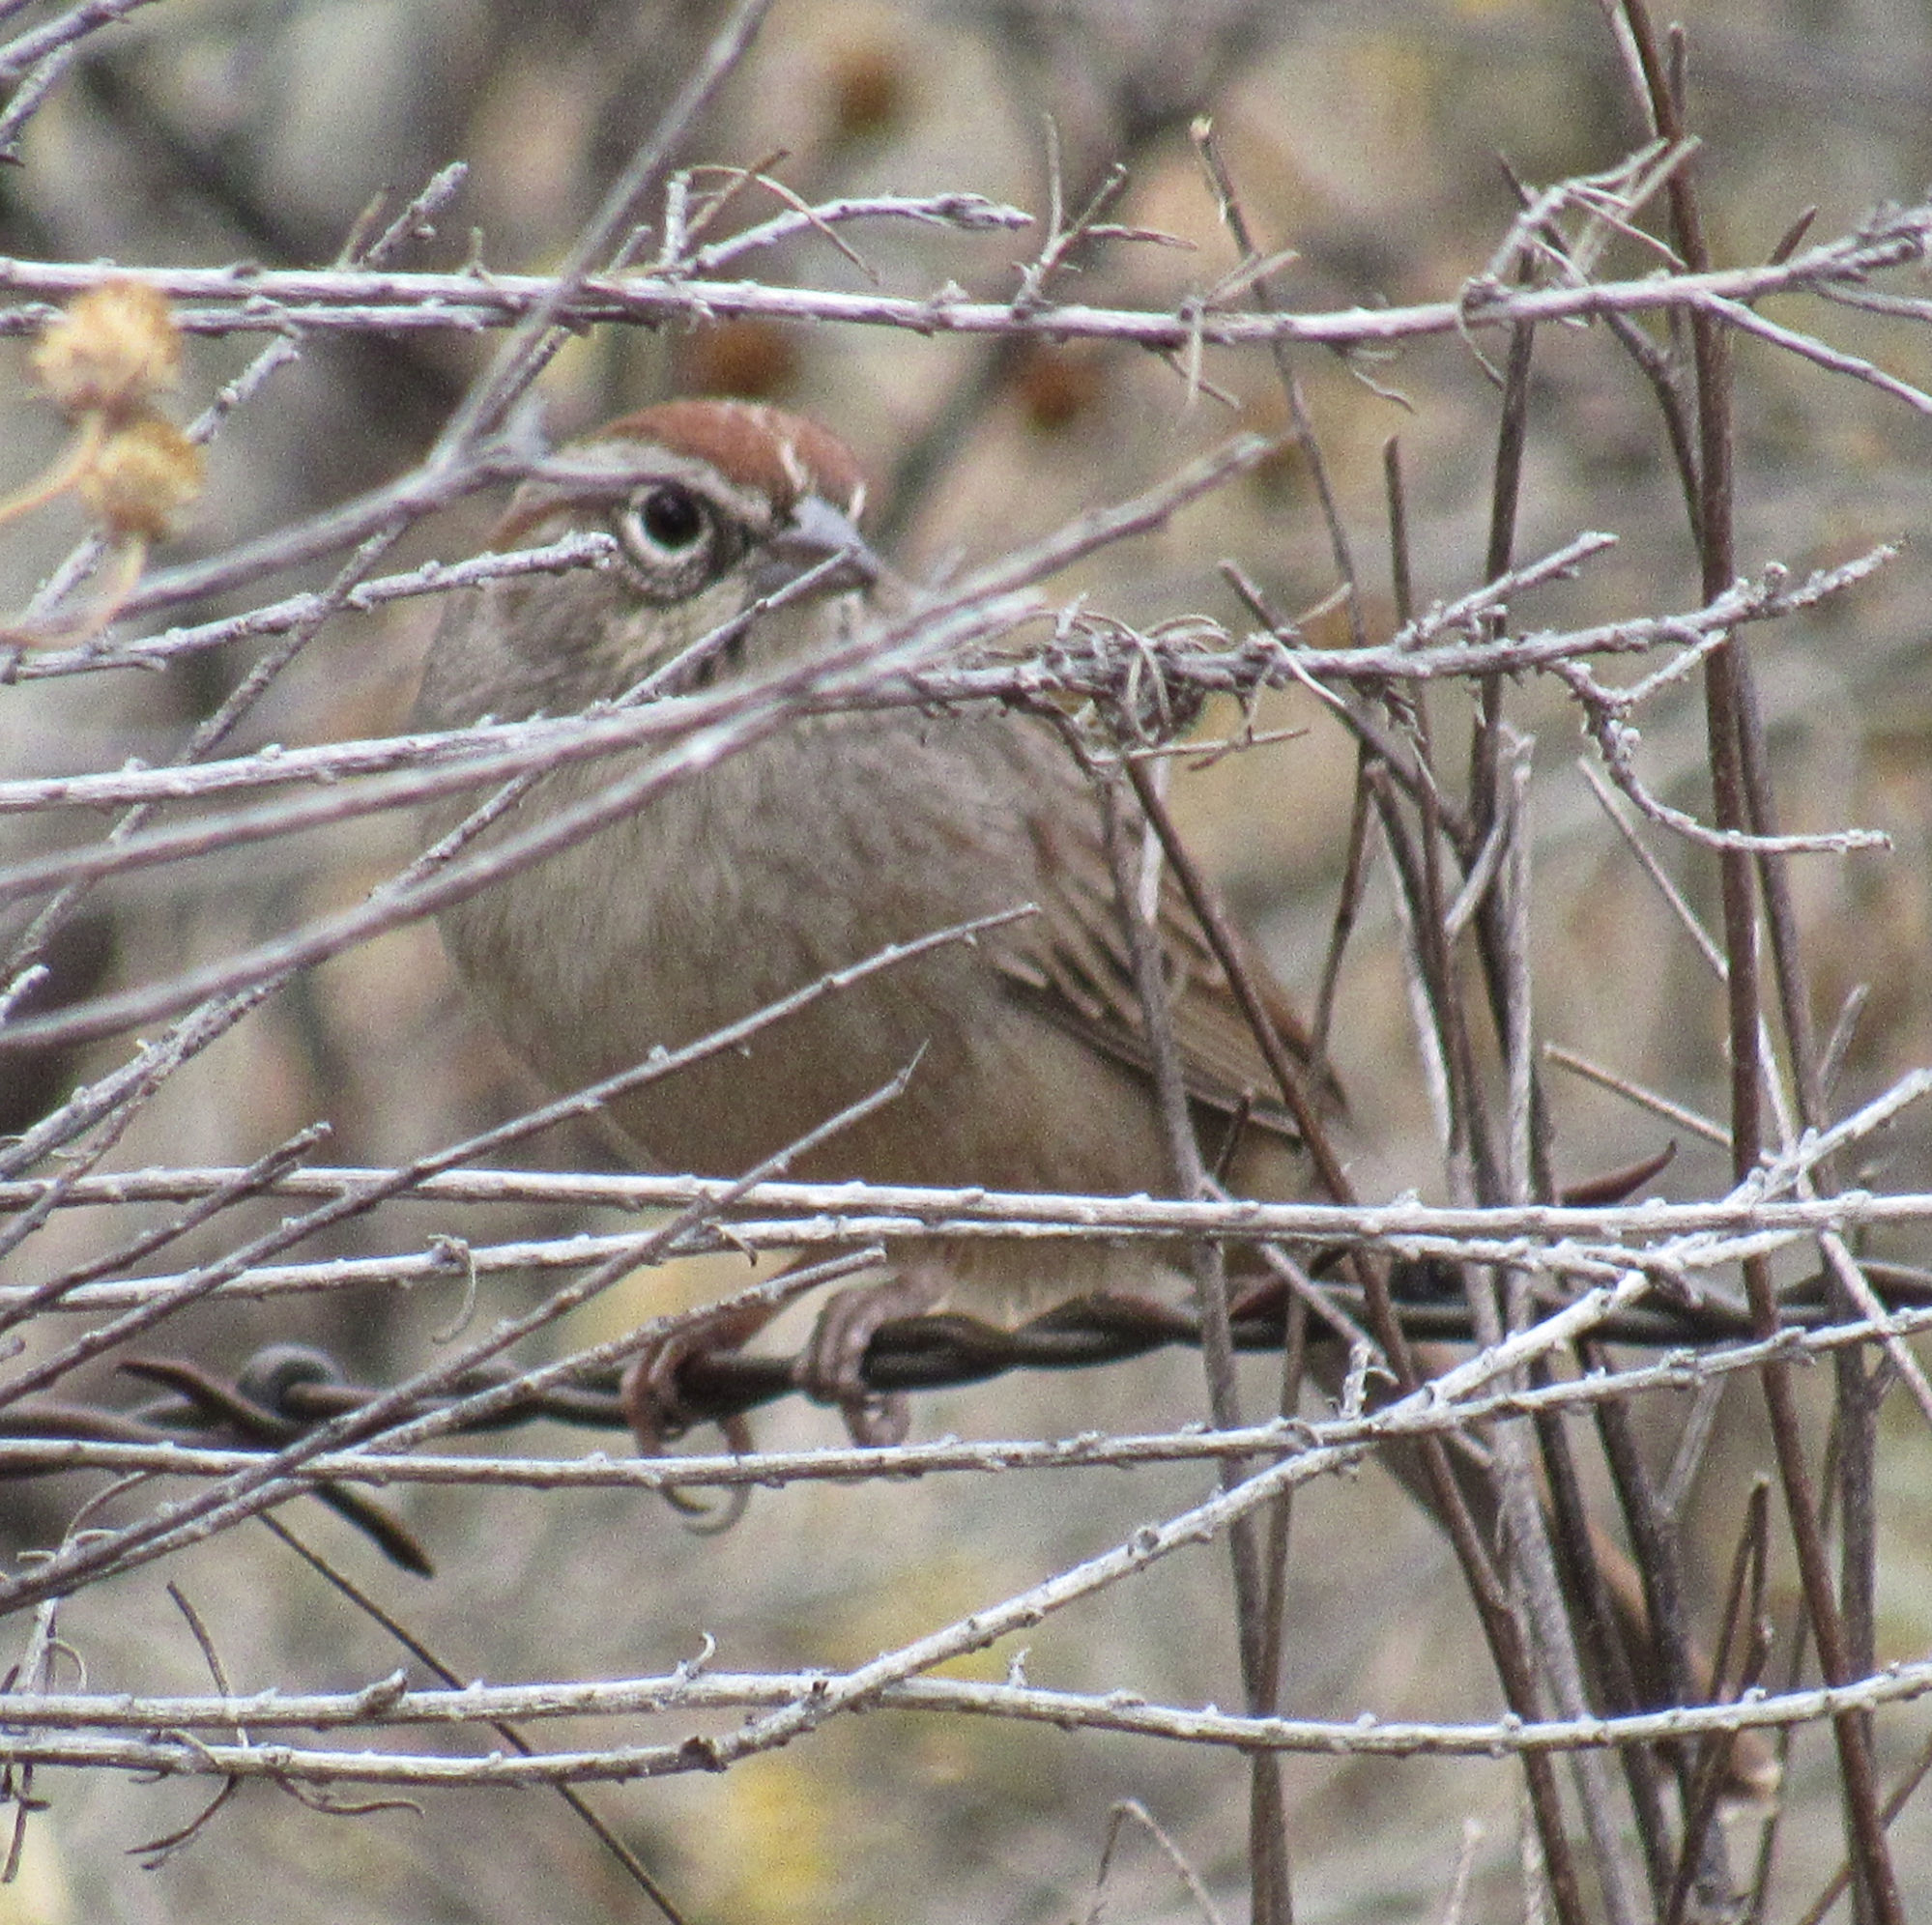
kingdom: Animalia
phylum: Chordata
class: Aves
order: Passeriformes
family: Passerellidae
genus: Aimophila
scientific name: Aimophila ruficeps
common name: Rufous-crowned sparrow
